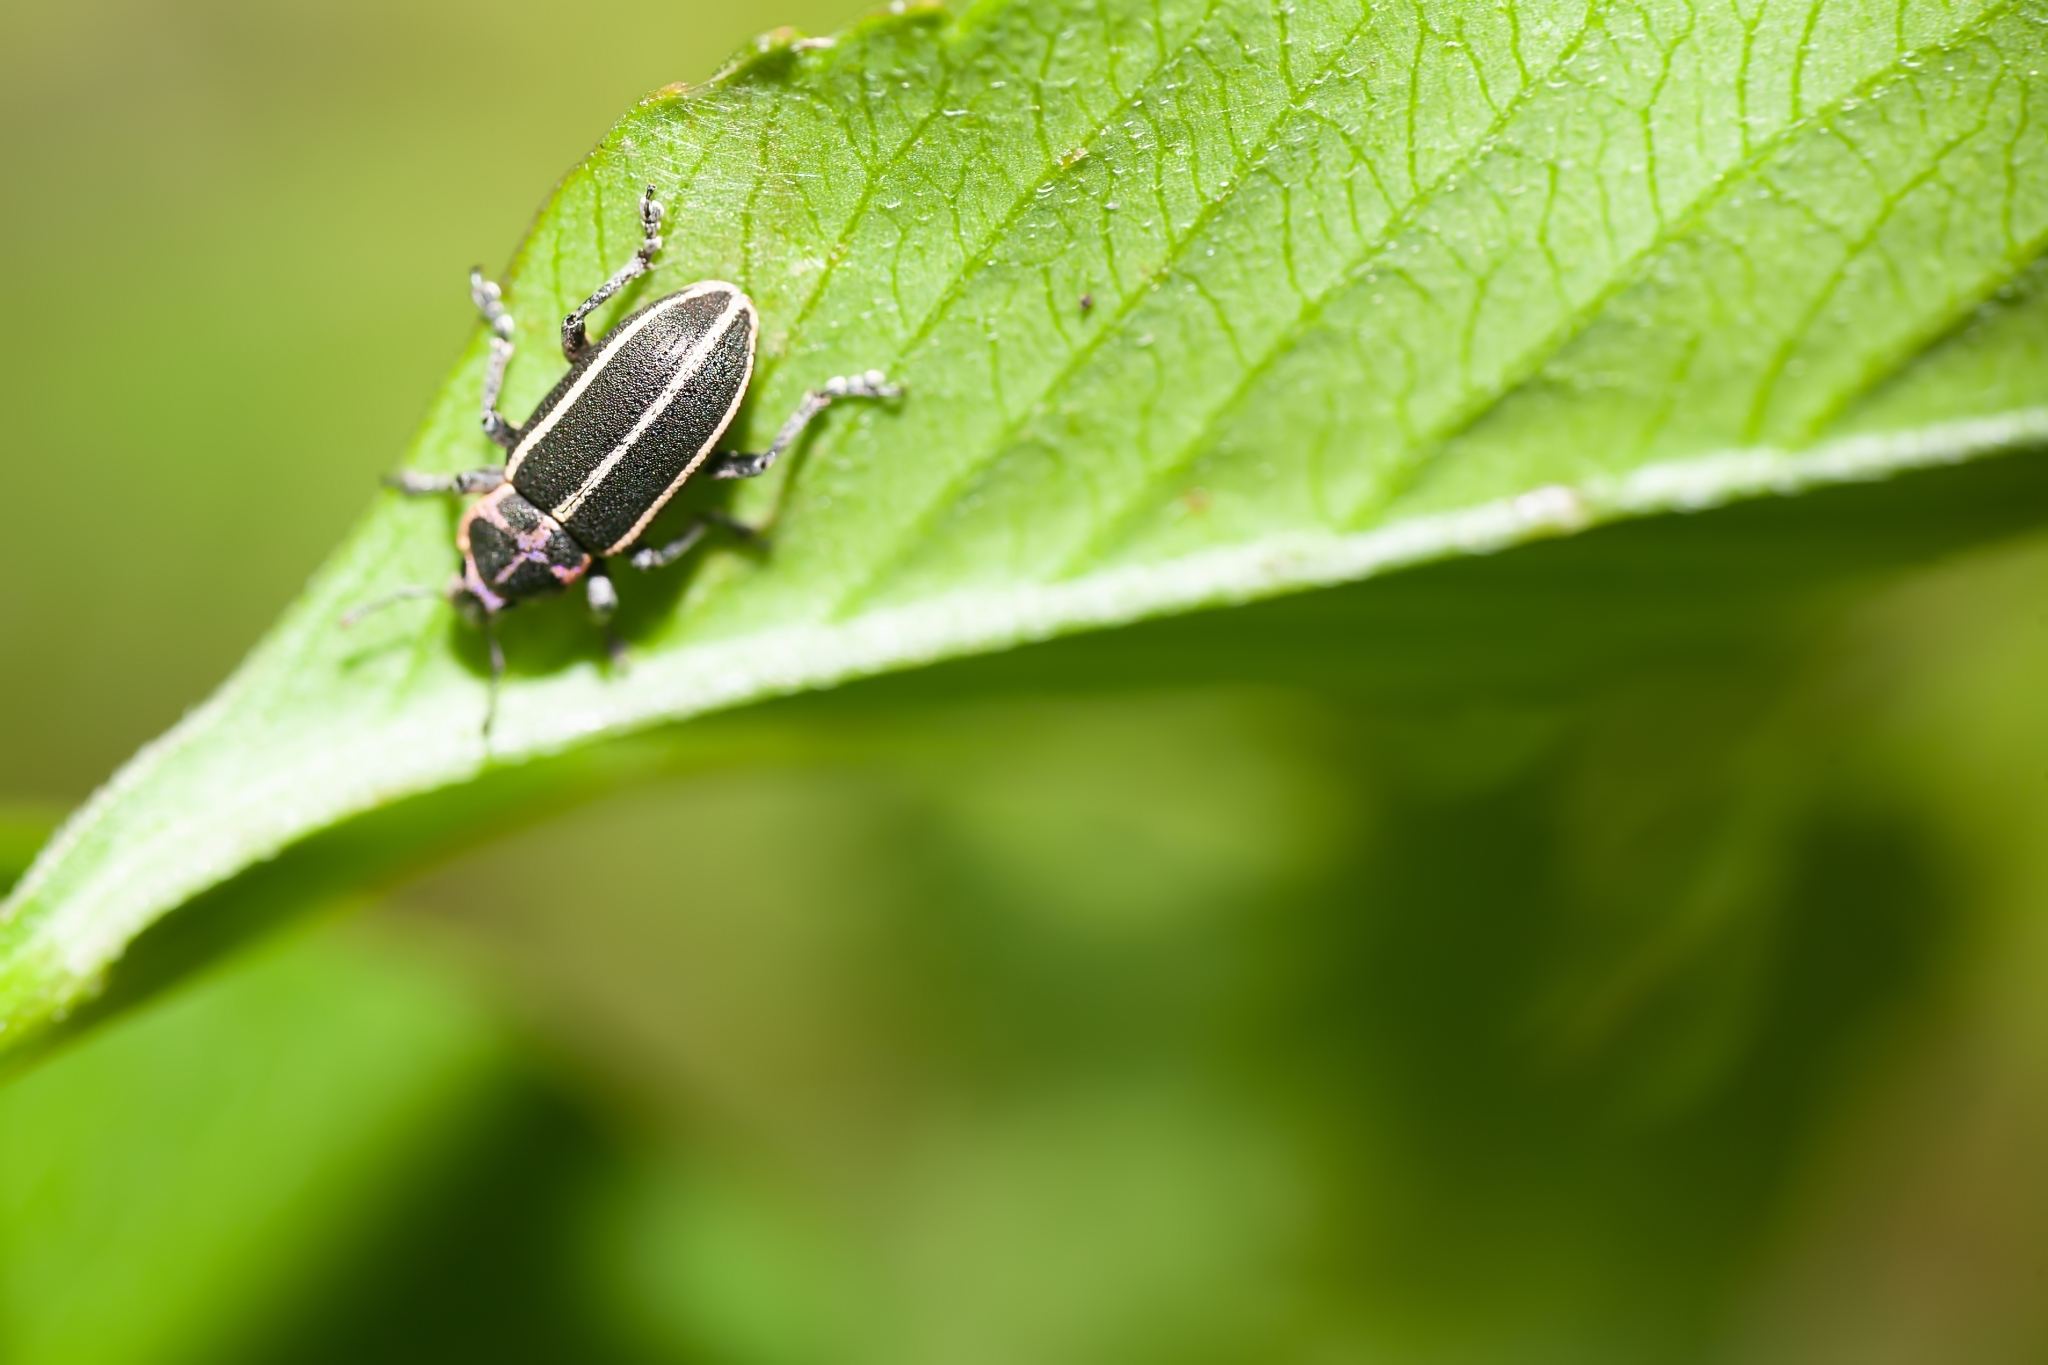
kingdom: Animalia
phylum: Arthropoda
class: Insecta
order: Coleoptera
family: Curculionidae
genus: Eudiagogus
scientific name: Eudiagogus maryae
